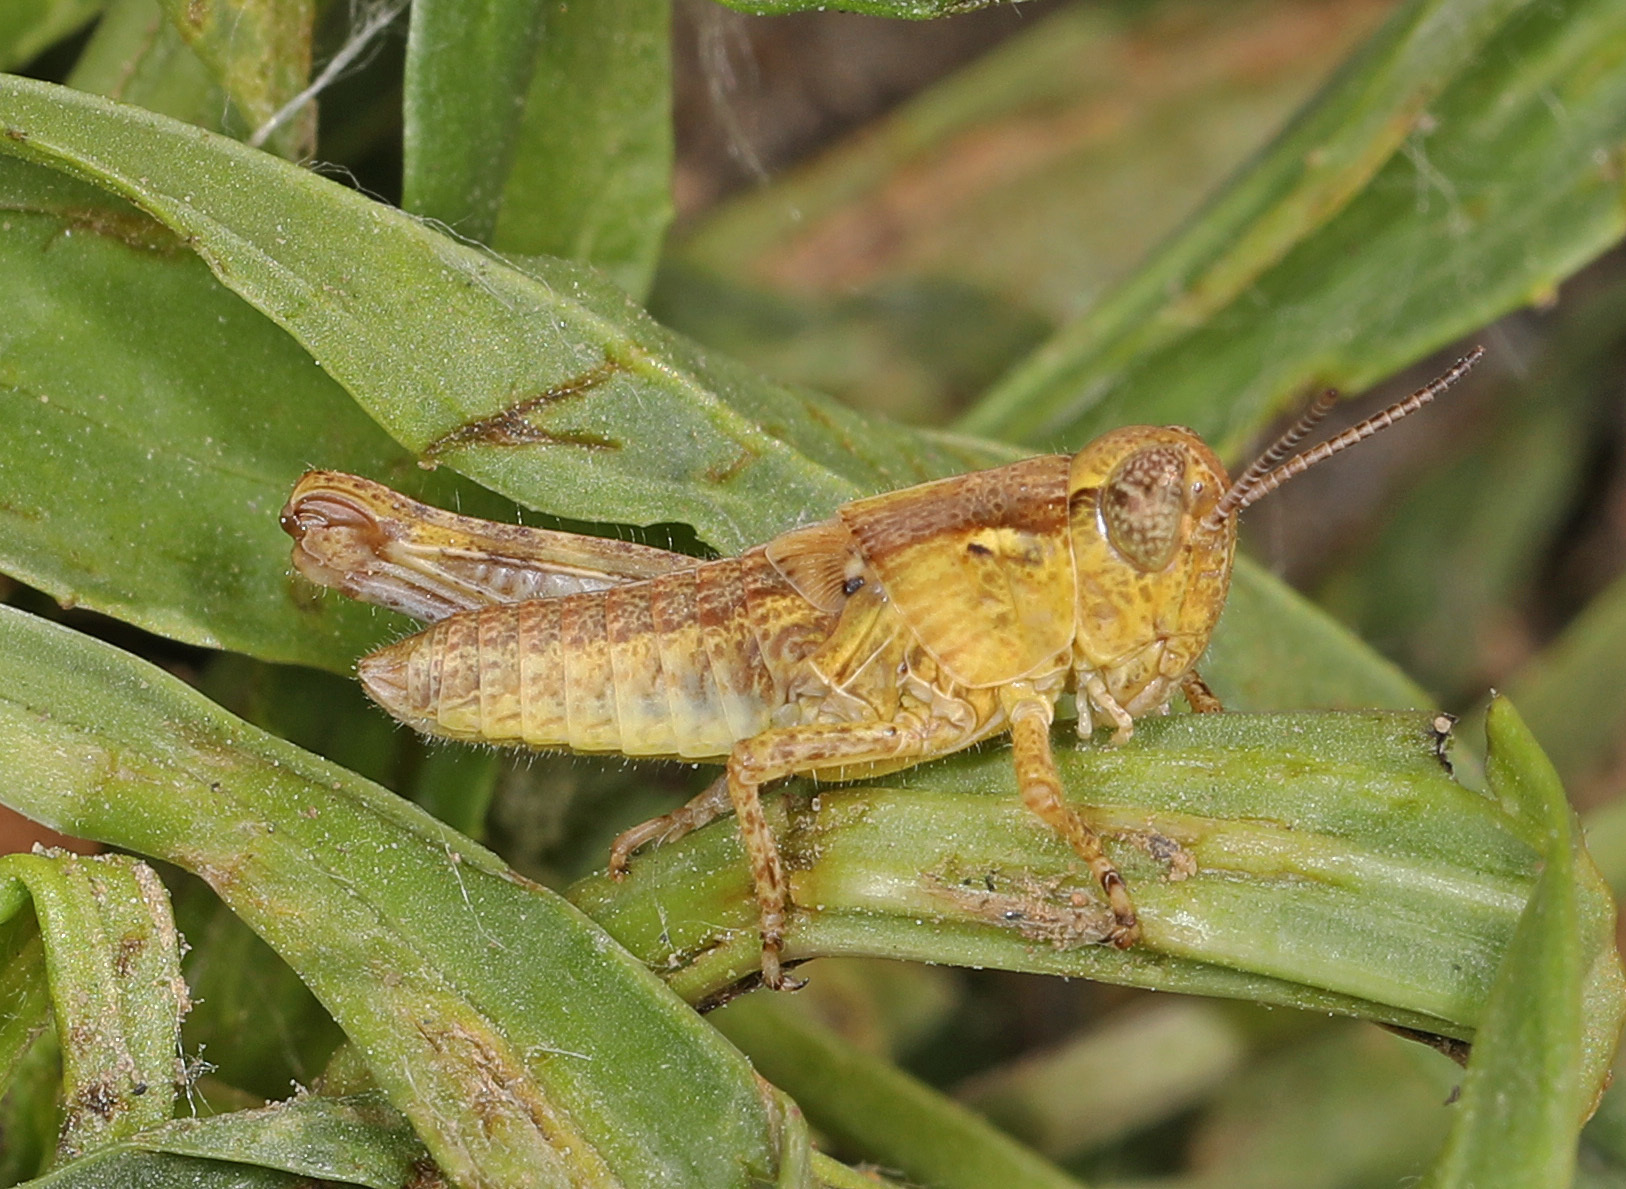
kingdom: Animalia
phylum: Arthropoda
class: Insecta
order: Orthoptera
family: Acrididae
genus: Melanoplus
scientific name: Melanoplus
